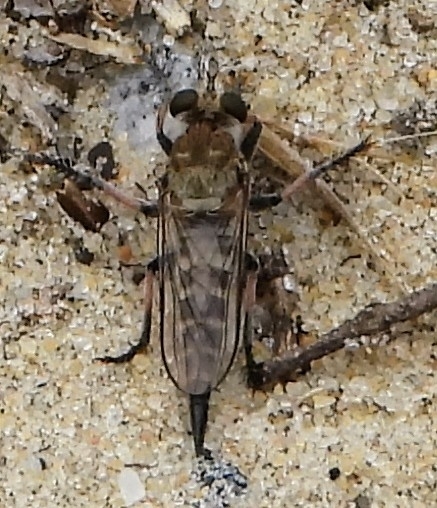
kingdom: Animalia
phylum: Arthropoda
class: Insecta
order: Diptera
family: Asilidae
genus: Efferia
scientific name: Efferia albibarbis
